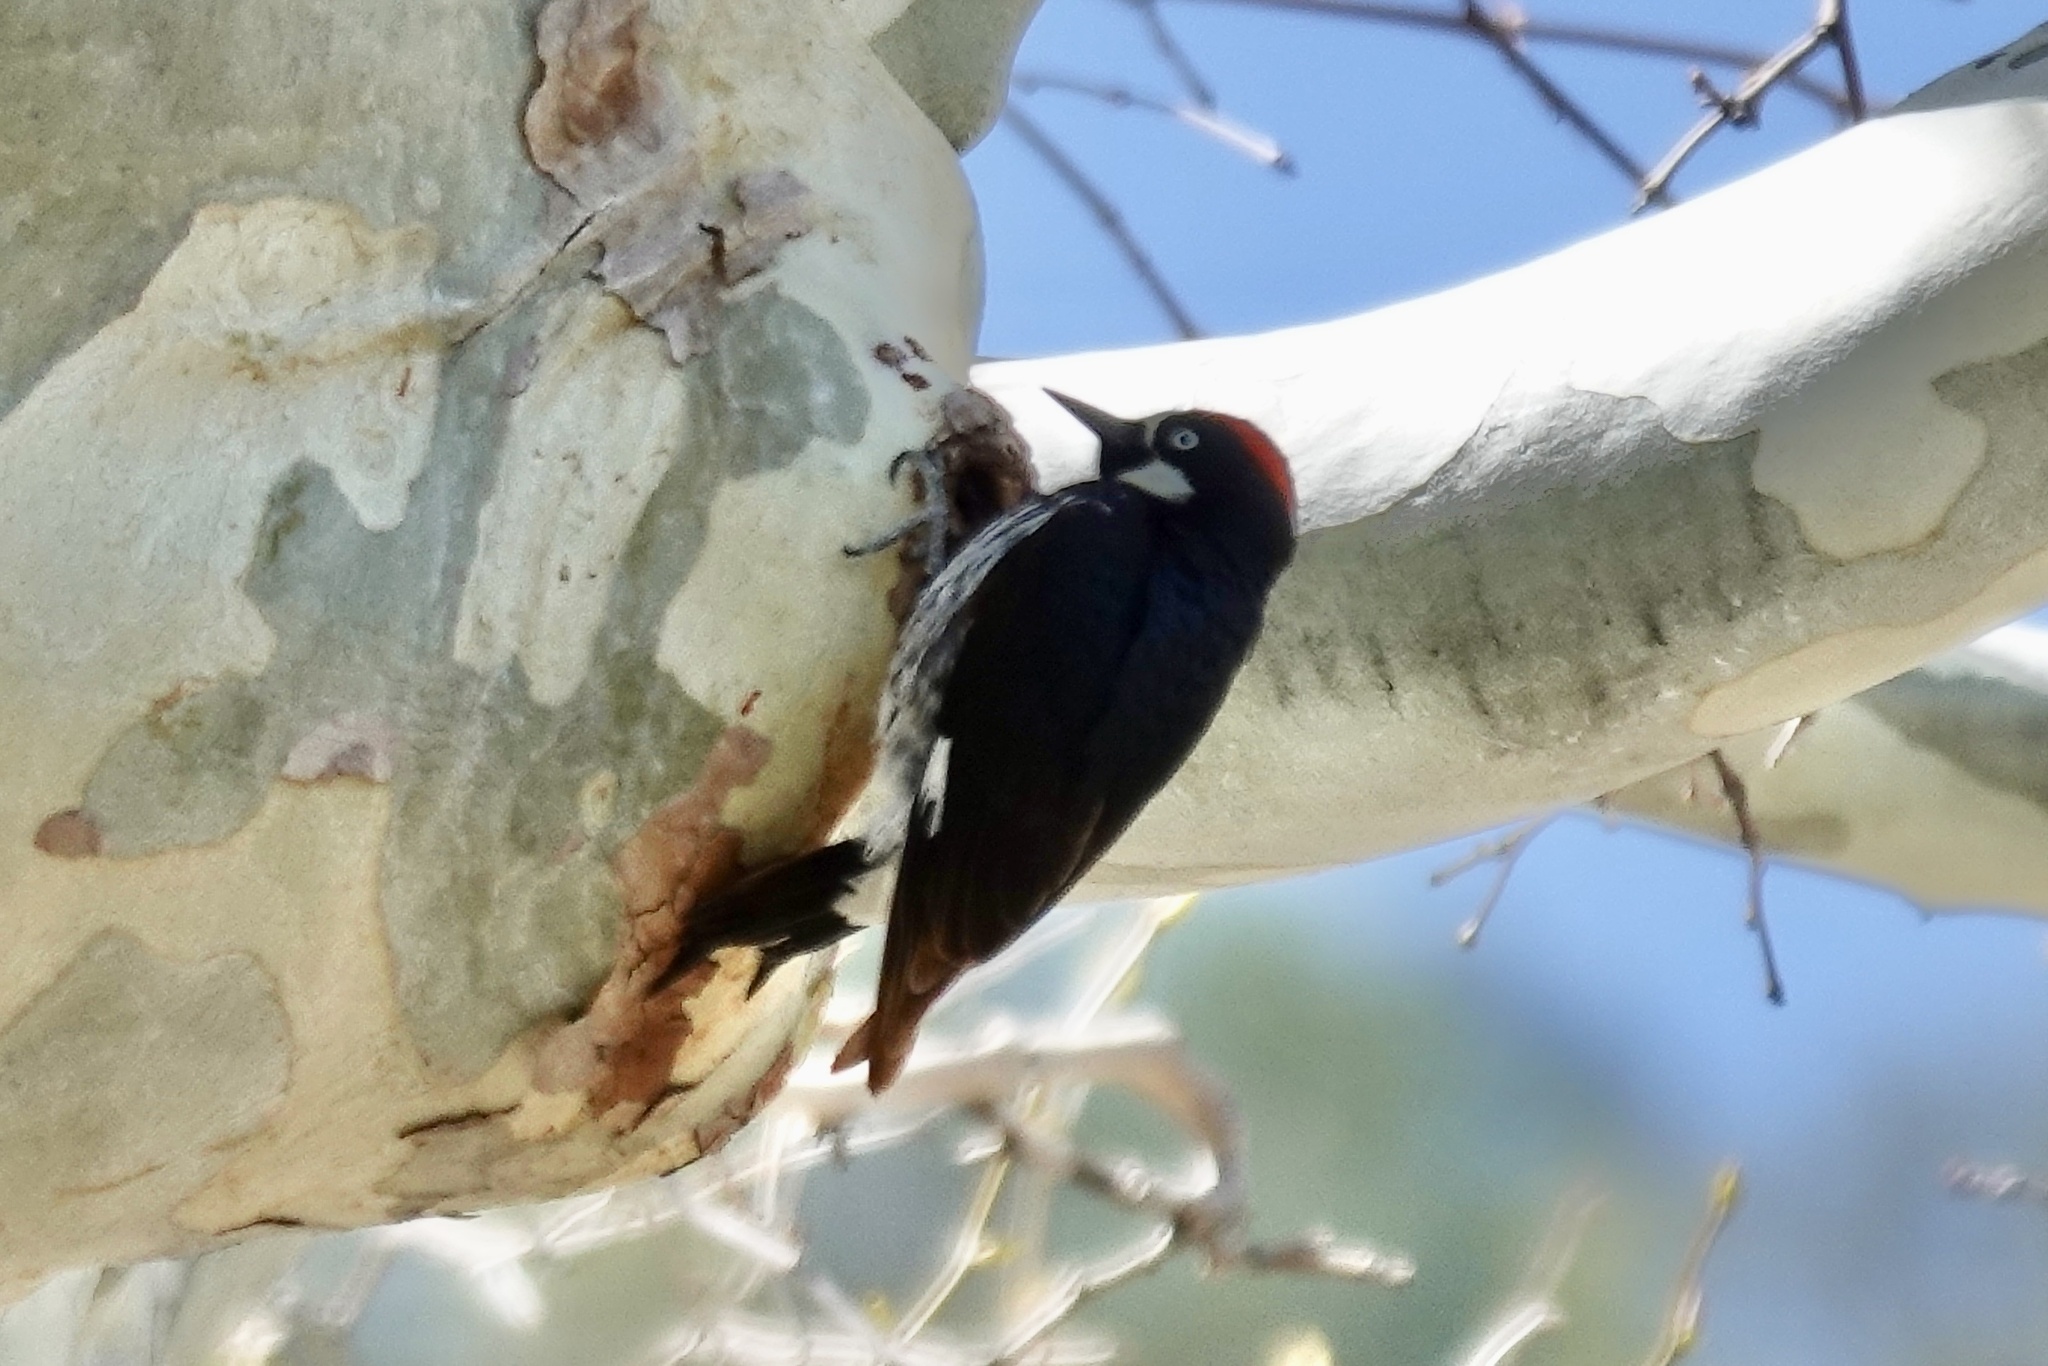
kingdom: Animalia
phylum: Chordata
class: Aves
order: Piciformes
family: Picidae
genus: Melanerpes
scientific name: Melanerpes formicivorus
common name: Acorn woodpecker
